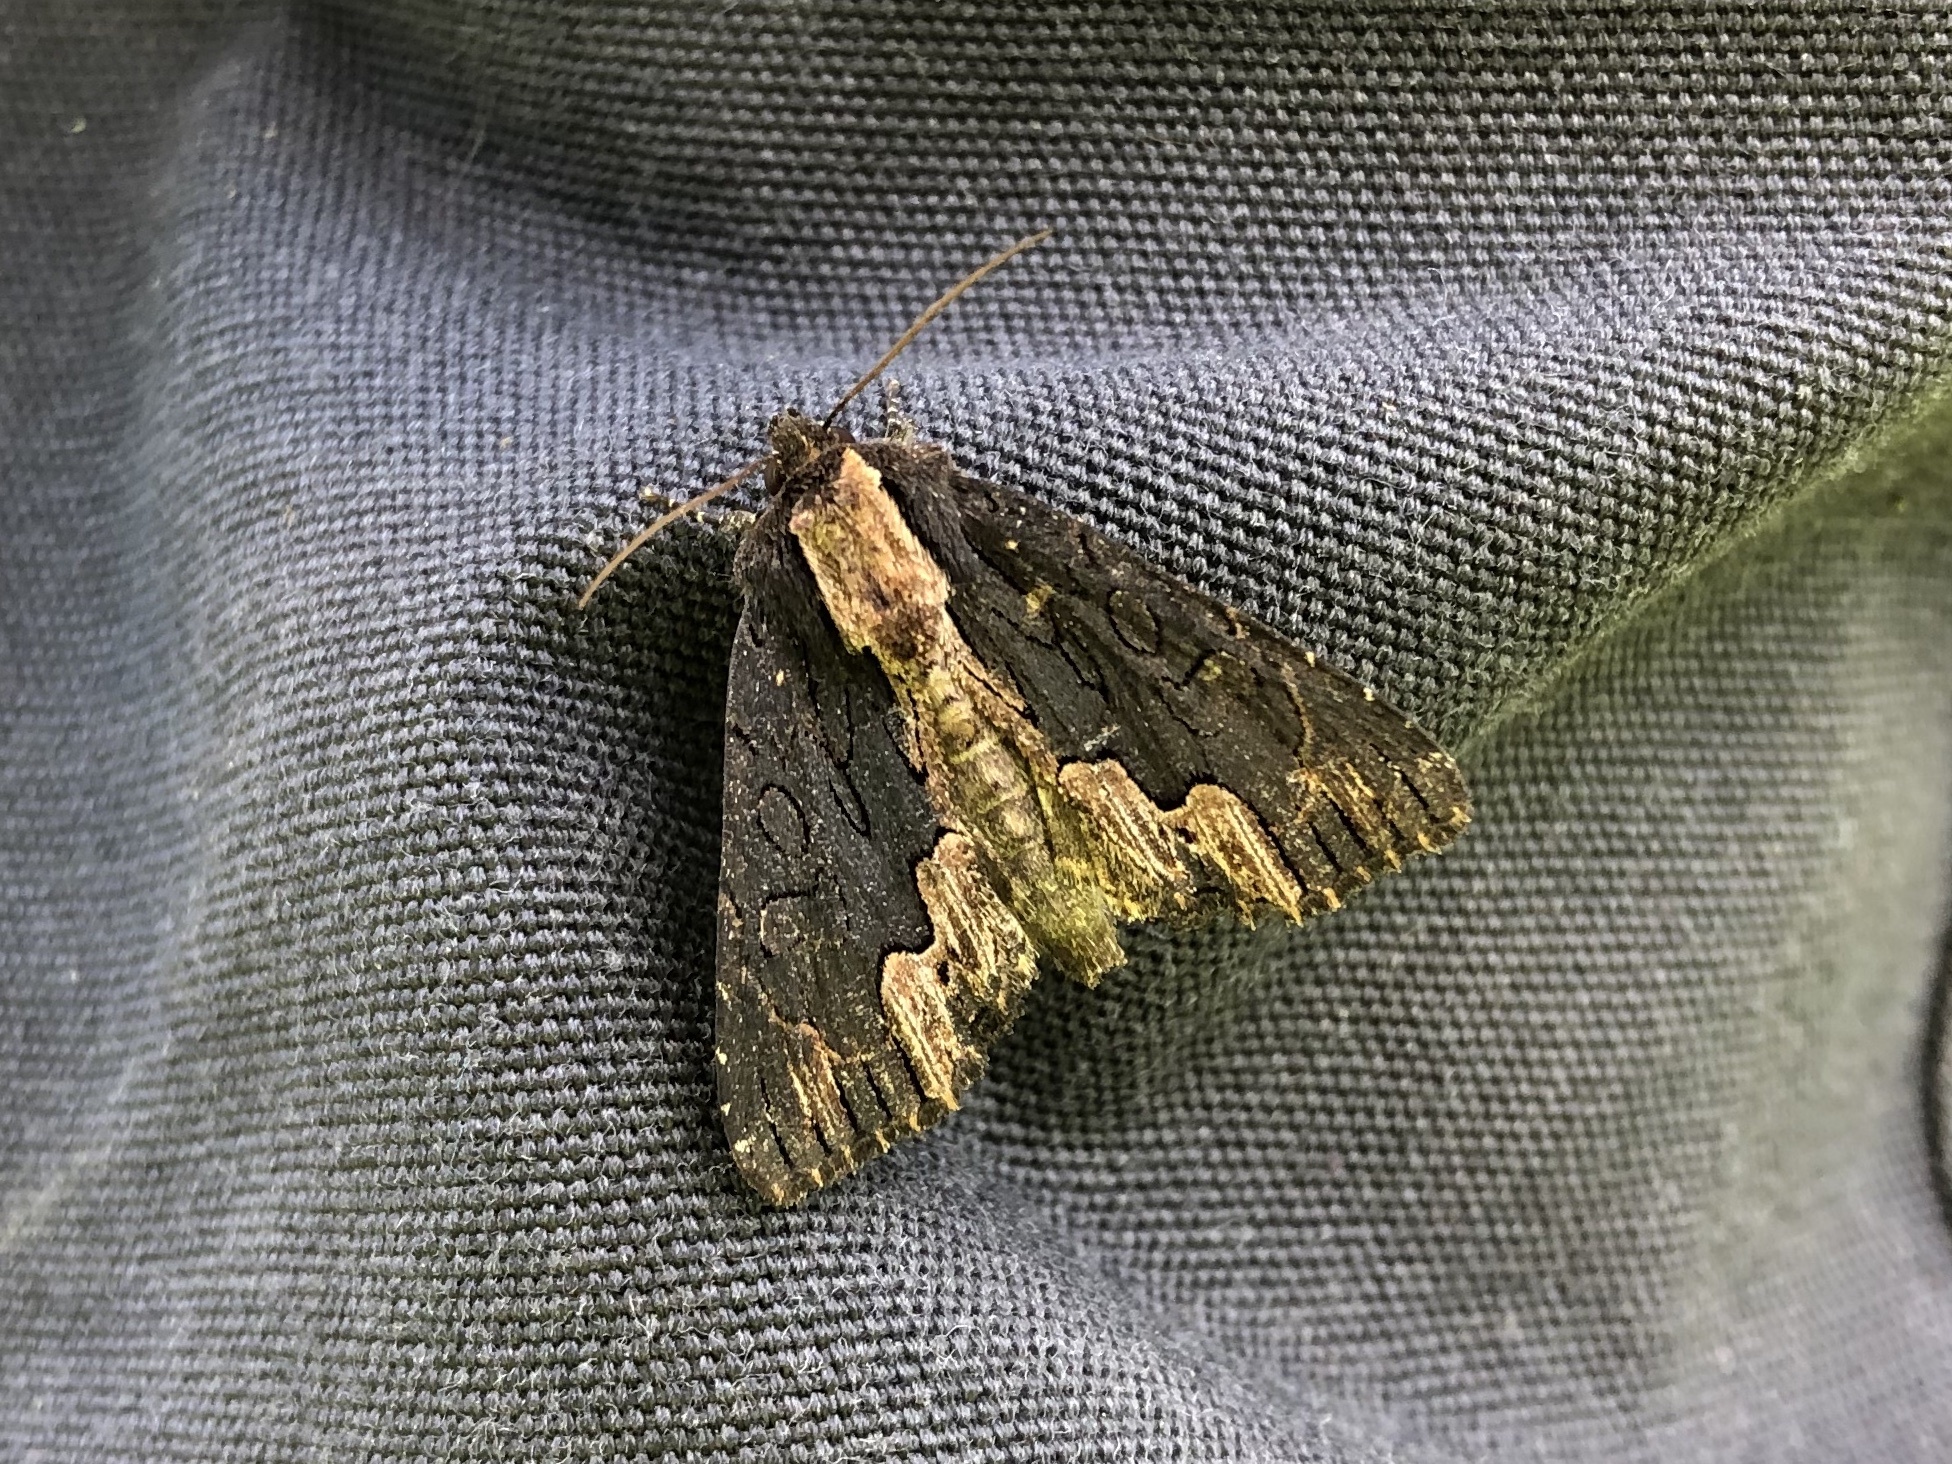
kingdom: Animalia
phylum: Arthropoda
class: Insecta
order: Lepidoptera
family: Noctuidae
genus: Dypterygia
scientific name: Dypterygia scabriuscula
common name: Bird's wing
